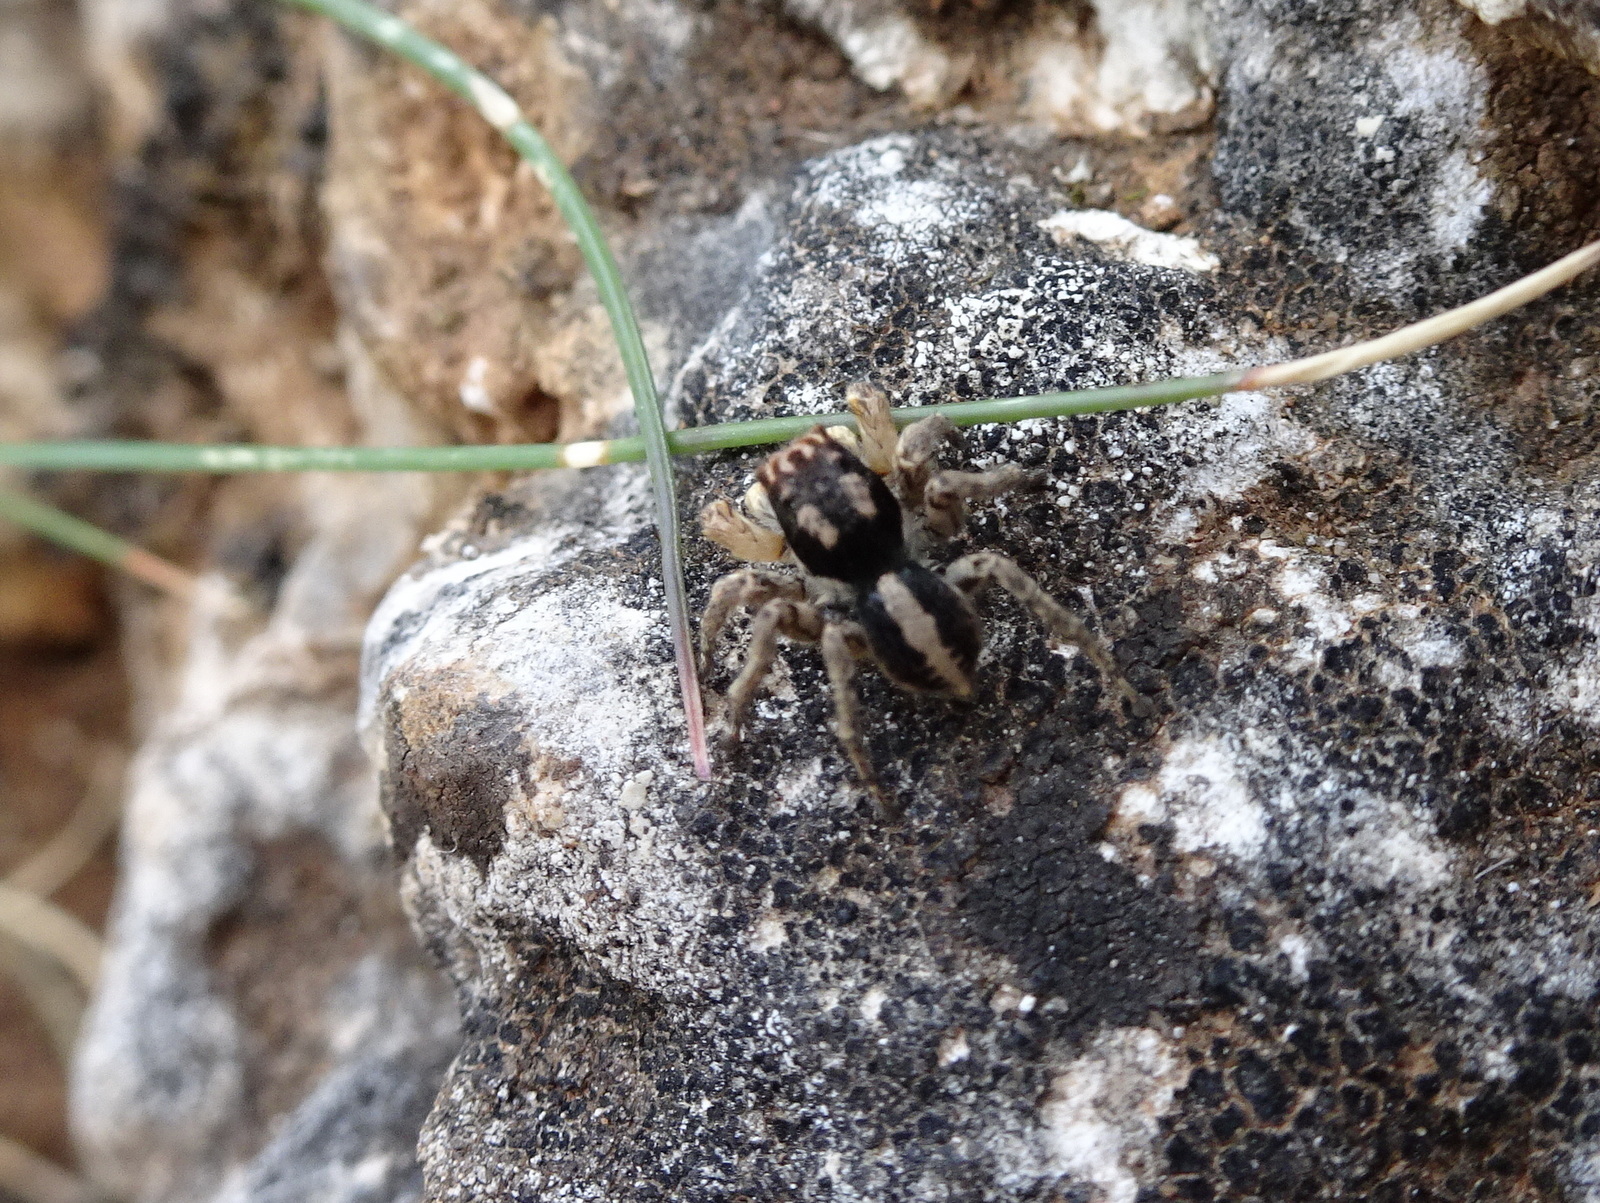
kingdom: Animalia
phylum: Arthropoda
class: Arachnida
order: Araneae
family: Salticidae
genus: Aelurillus
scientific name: Aelurillus v-insignitus
